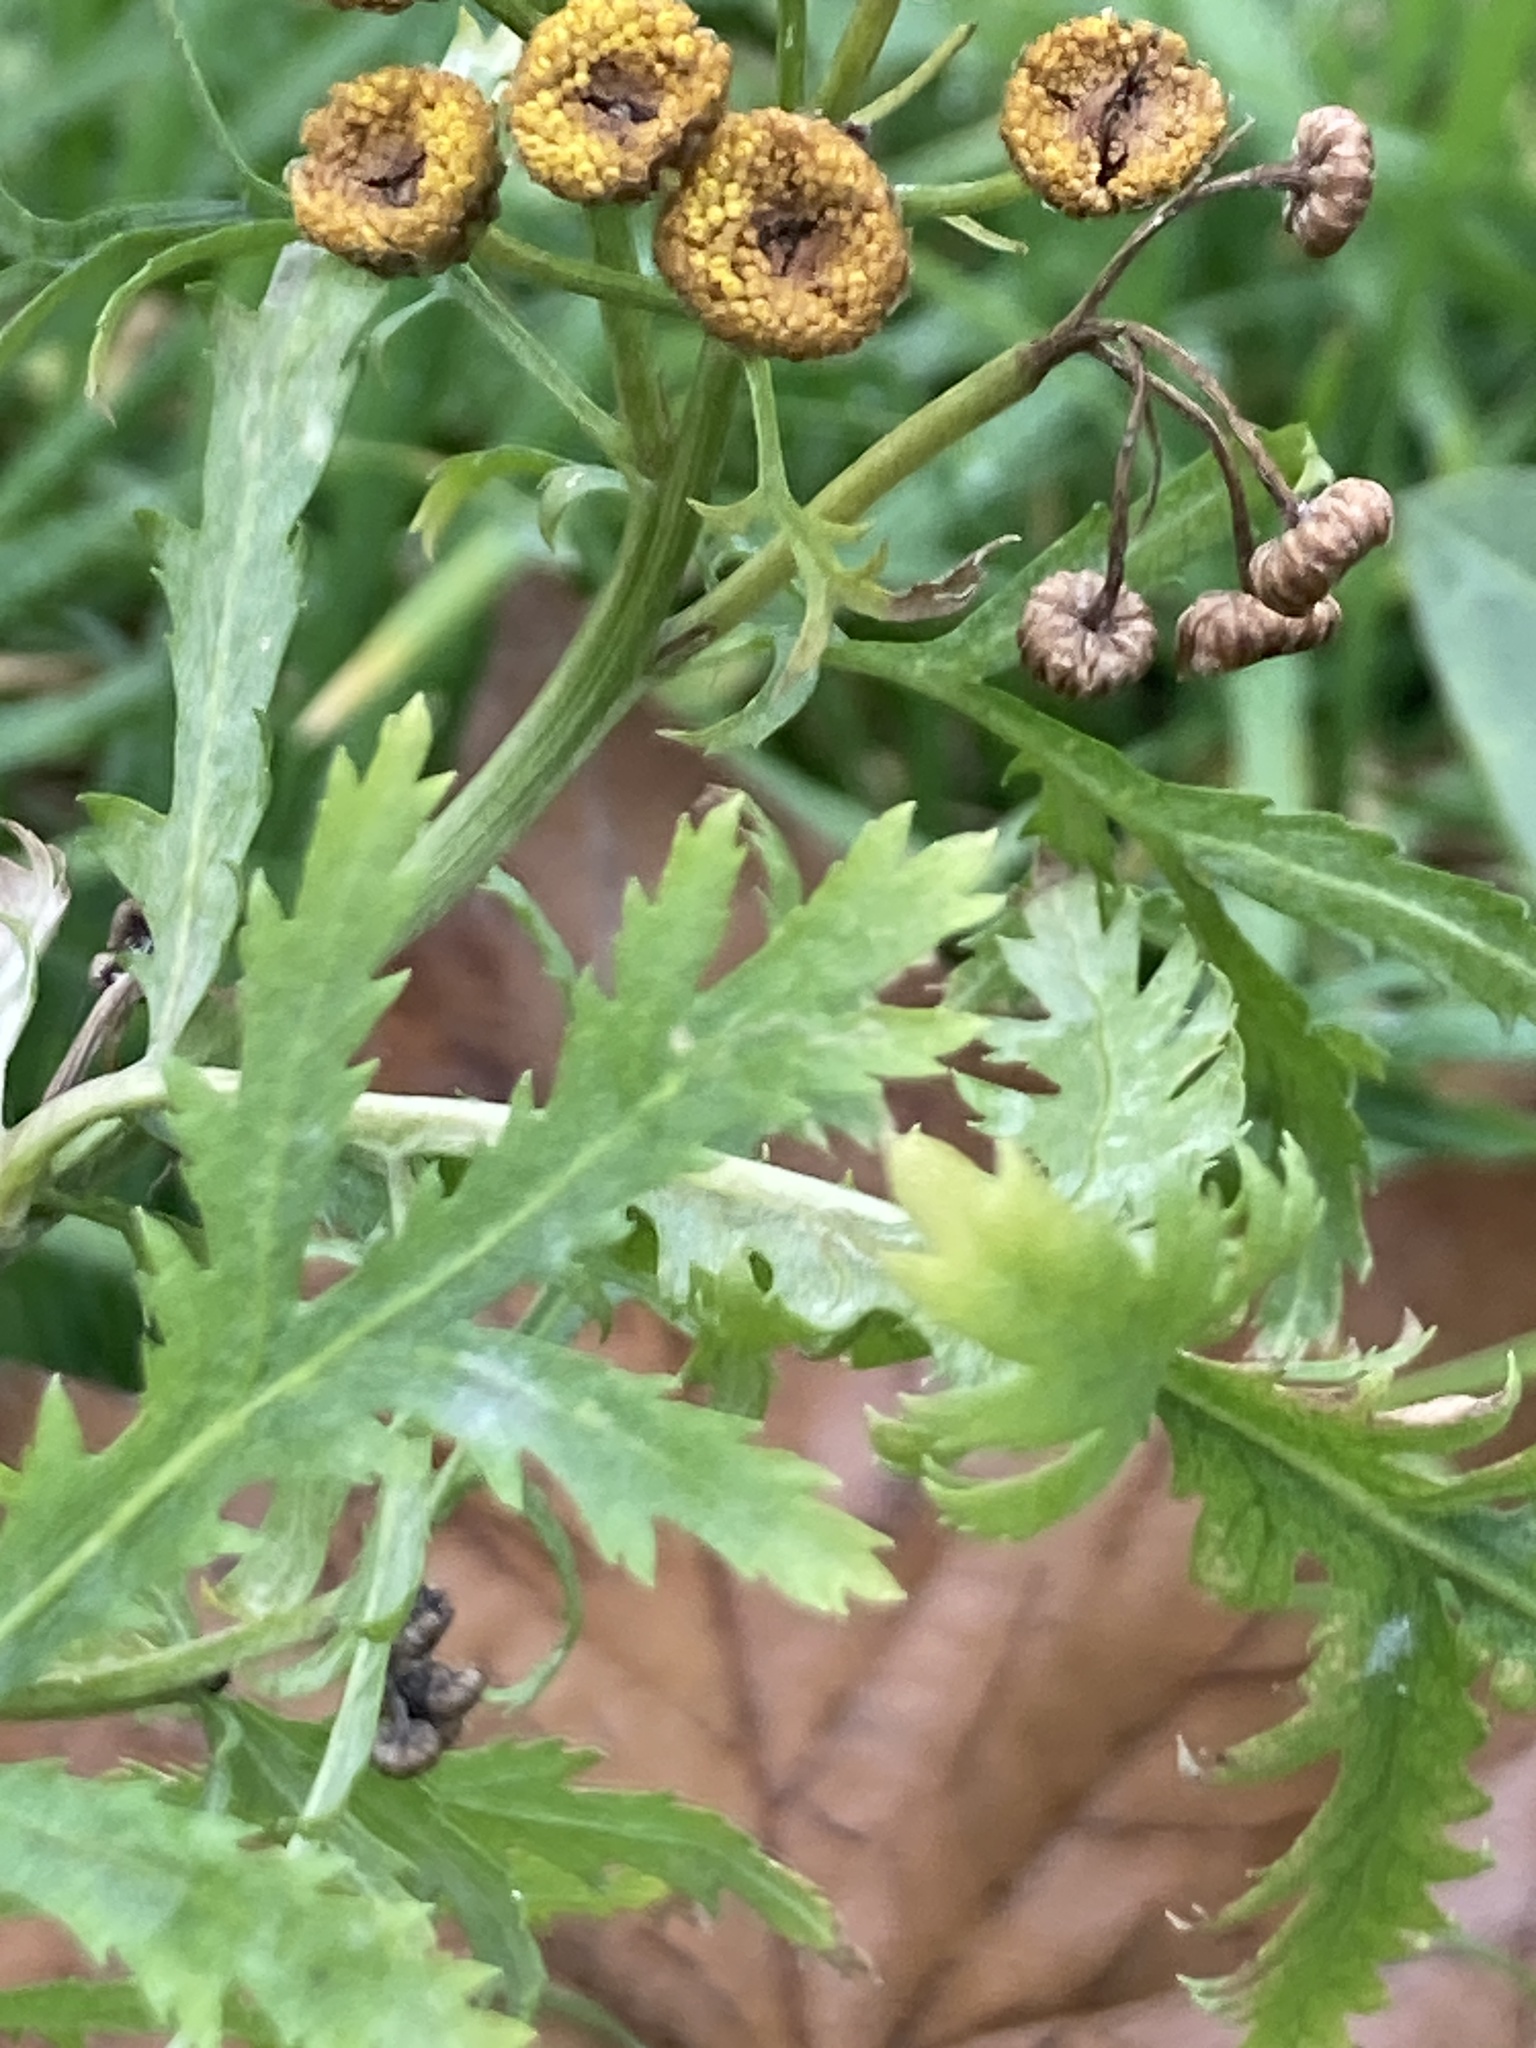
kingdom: Plantae
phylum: Tracheophyta
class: Magnoliopsida
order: Asterales
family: Asteraceae
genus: Tanacetum
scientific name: Tanacetum vulgare
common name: Common tansy
